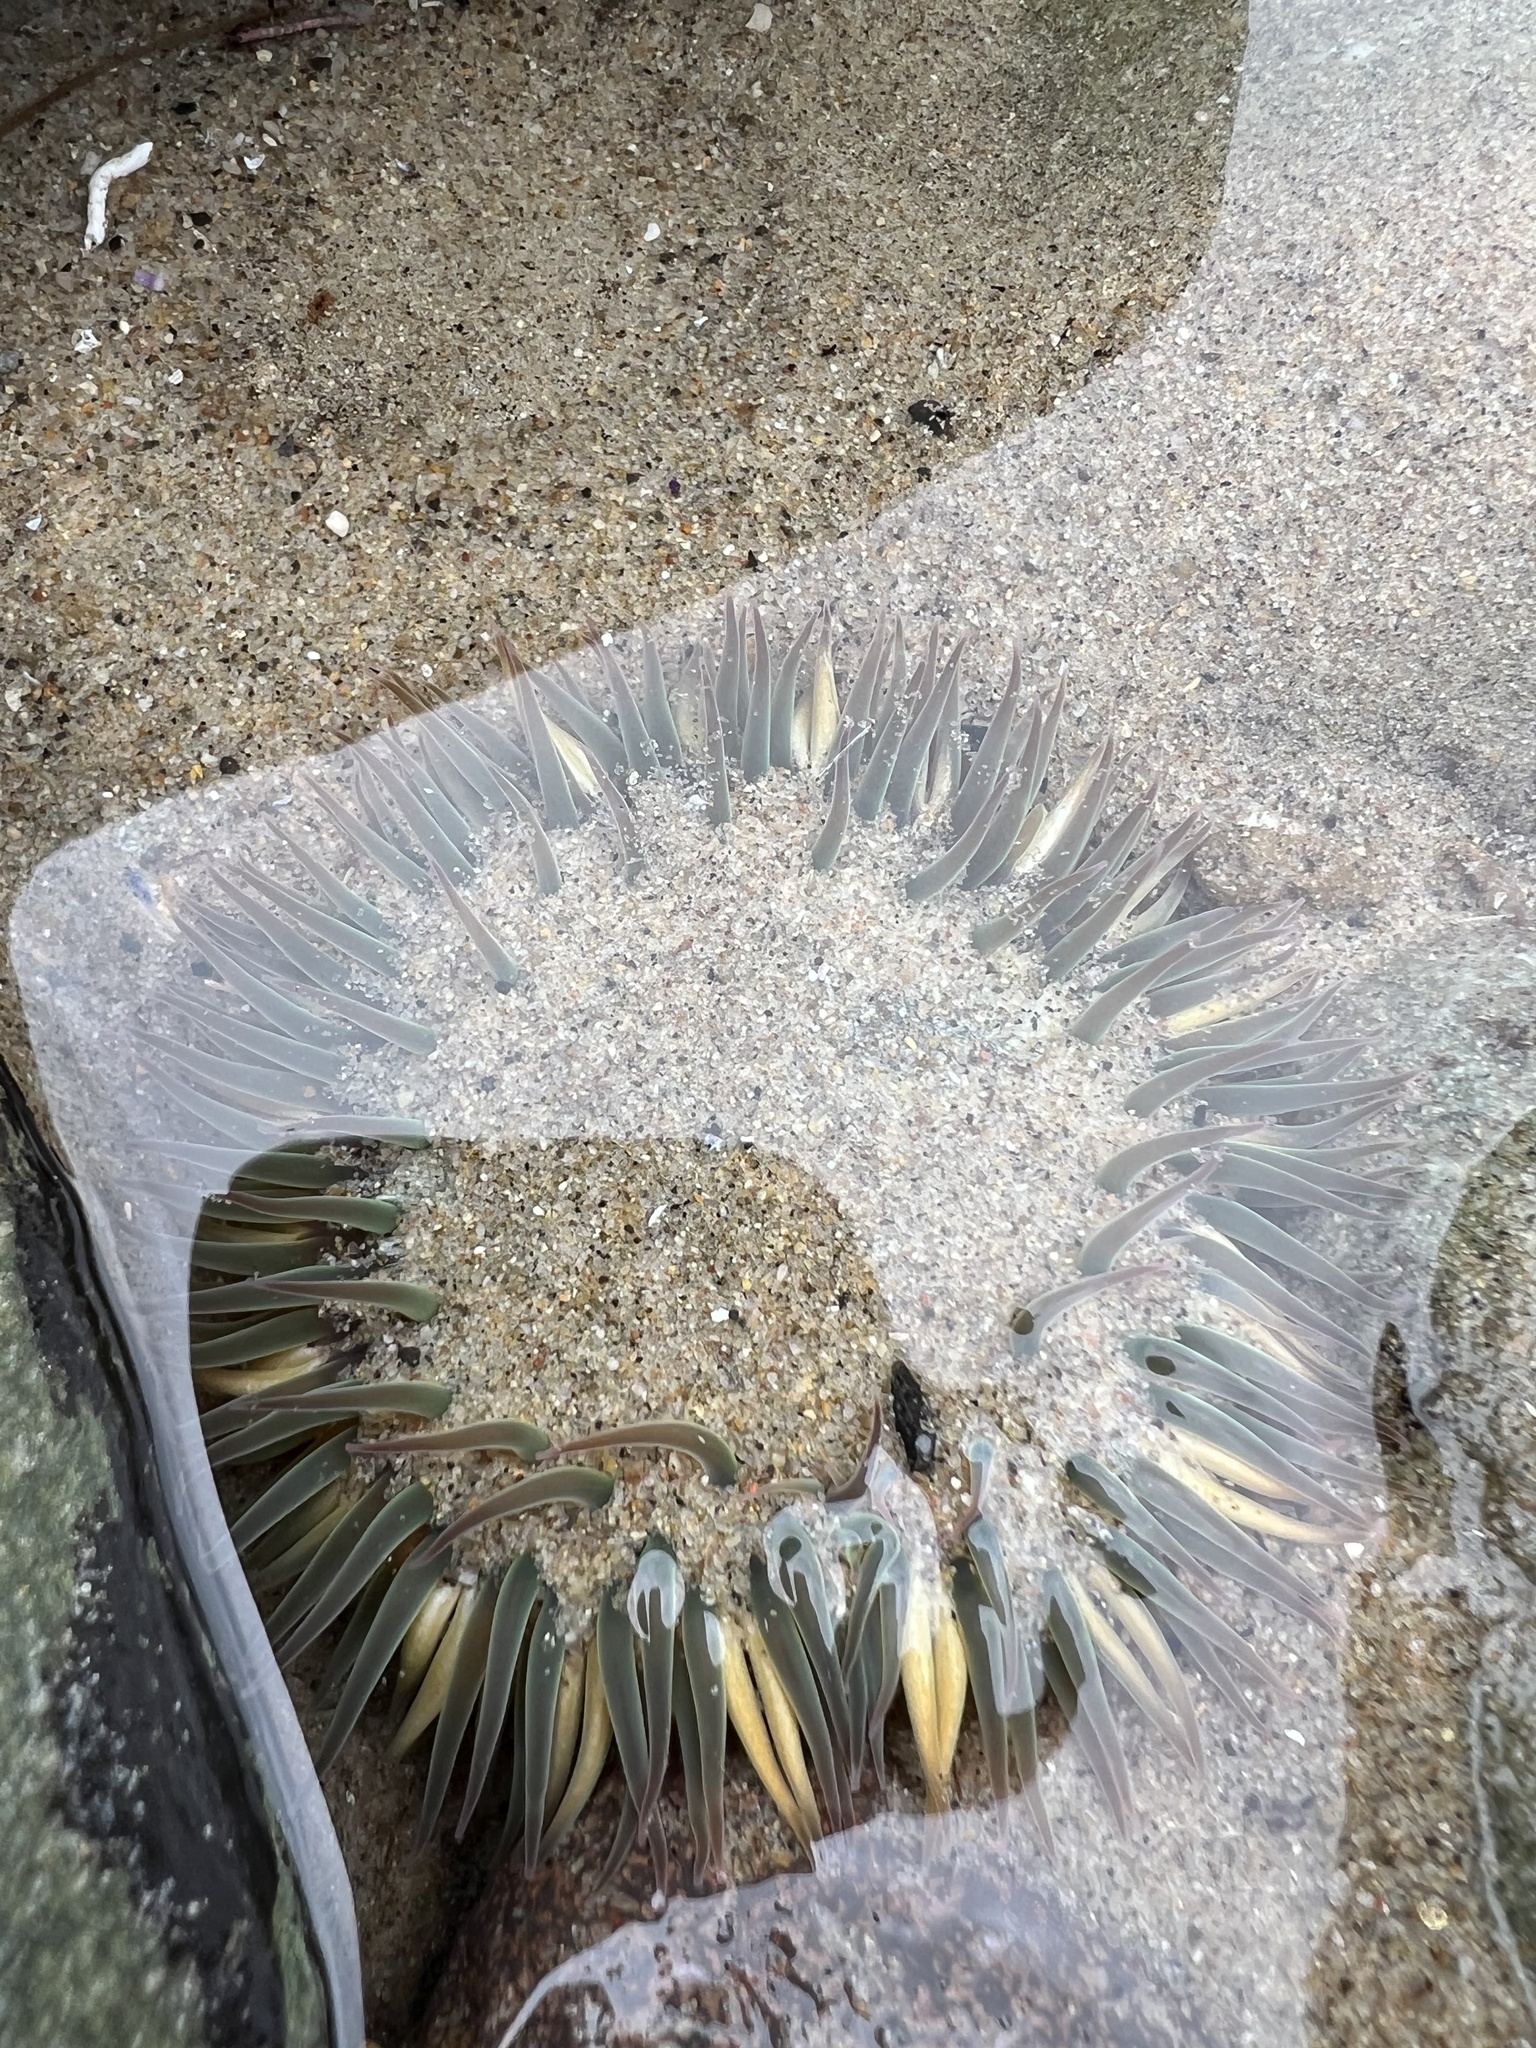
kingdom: Animalia
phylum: Cnidaria
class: Anthozoa
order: Actiniaria
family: Actiniidae
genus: Anthopleura
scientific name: Anthopleura sola
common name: Sun anemone
